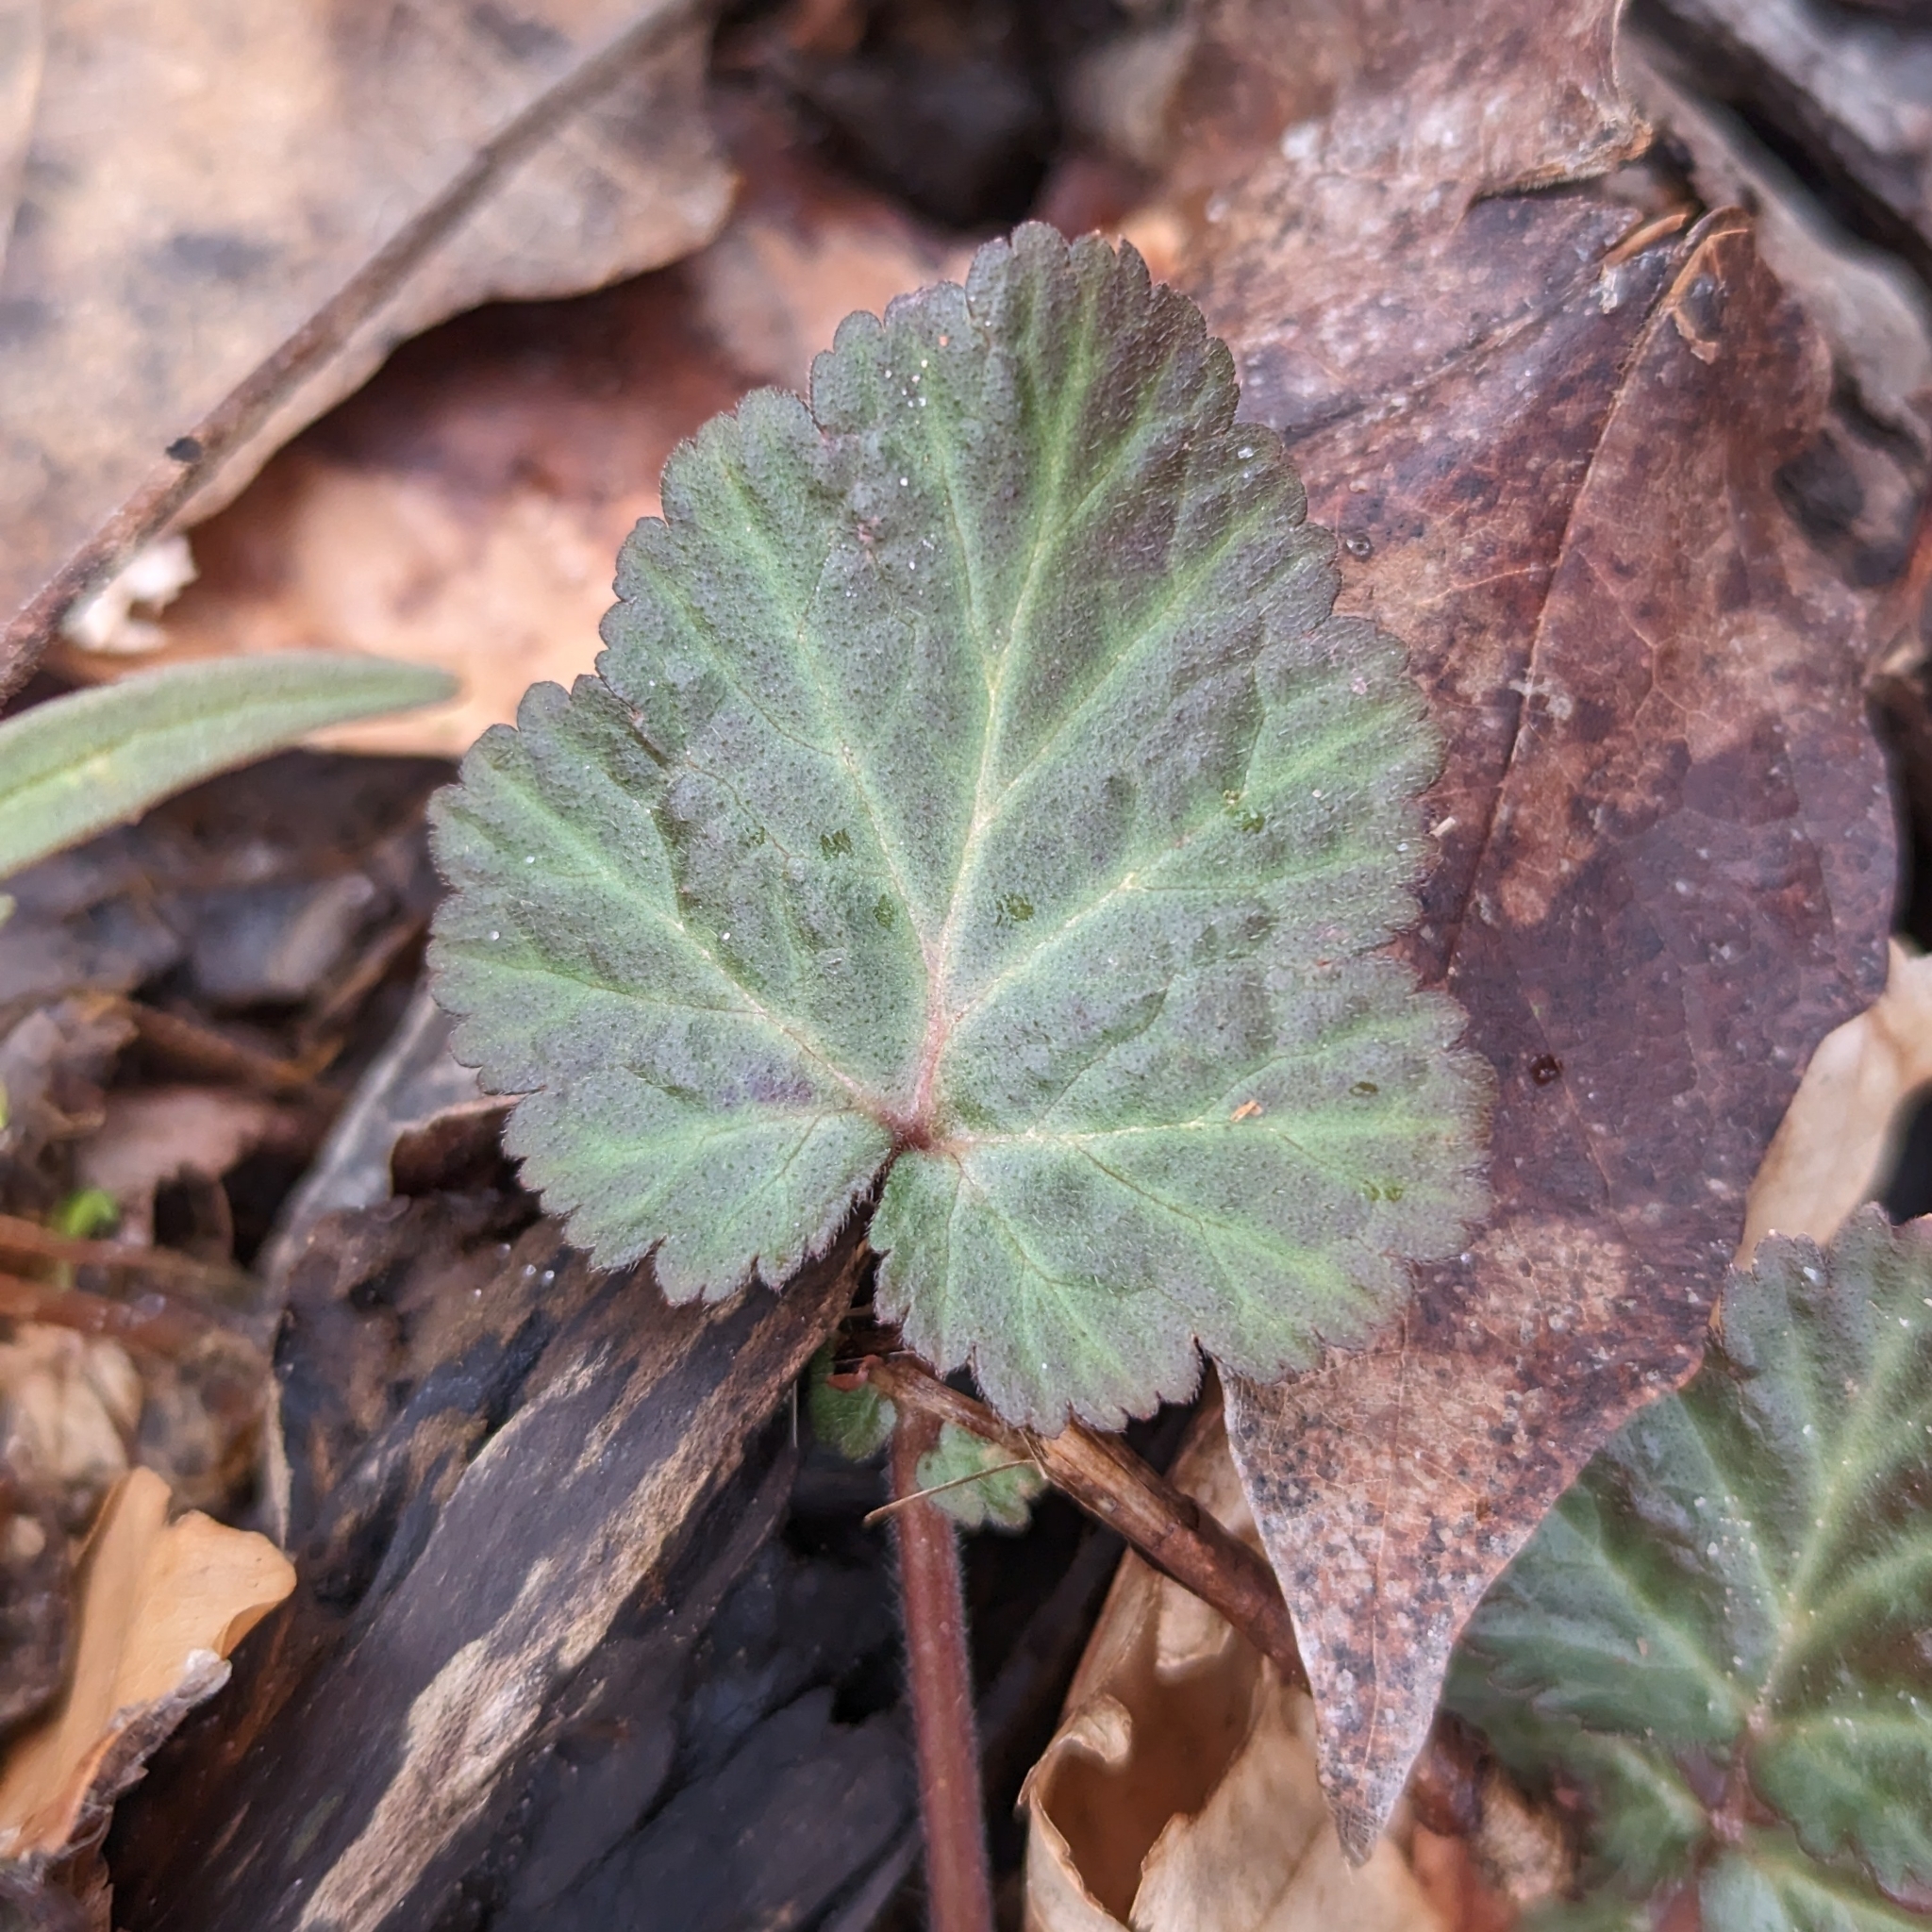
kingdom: Plantae
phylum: Tracheophyta
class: Magnoliopsida
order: Rosales
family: Rosaceae
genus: Geum
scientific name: Geum canadense
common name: White avens
